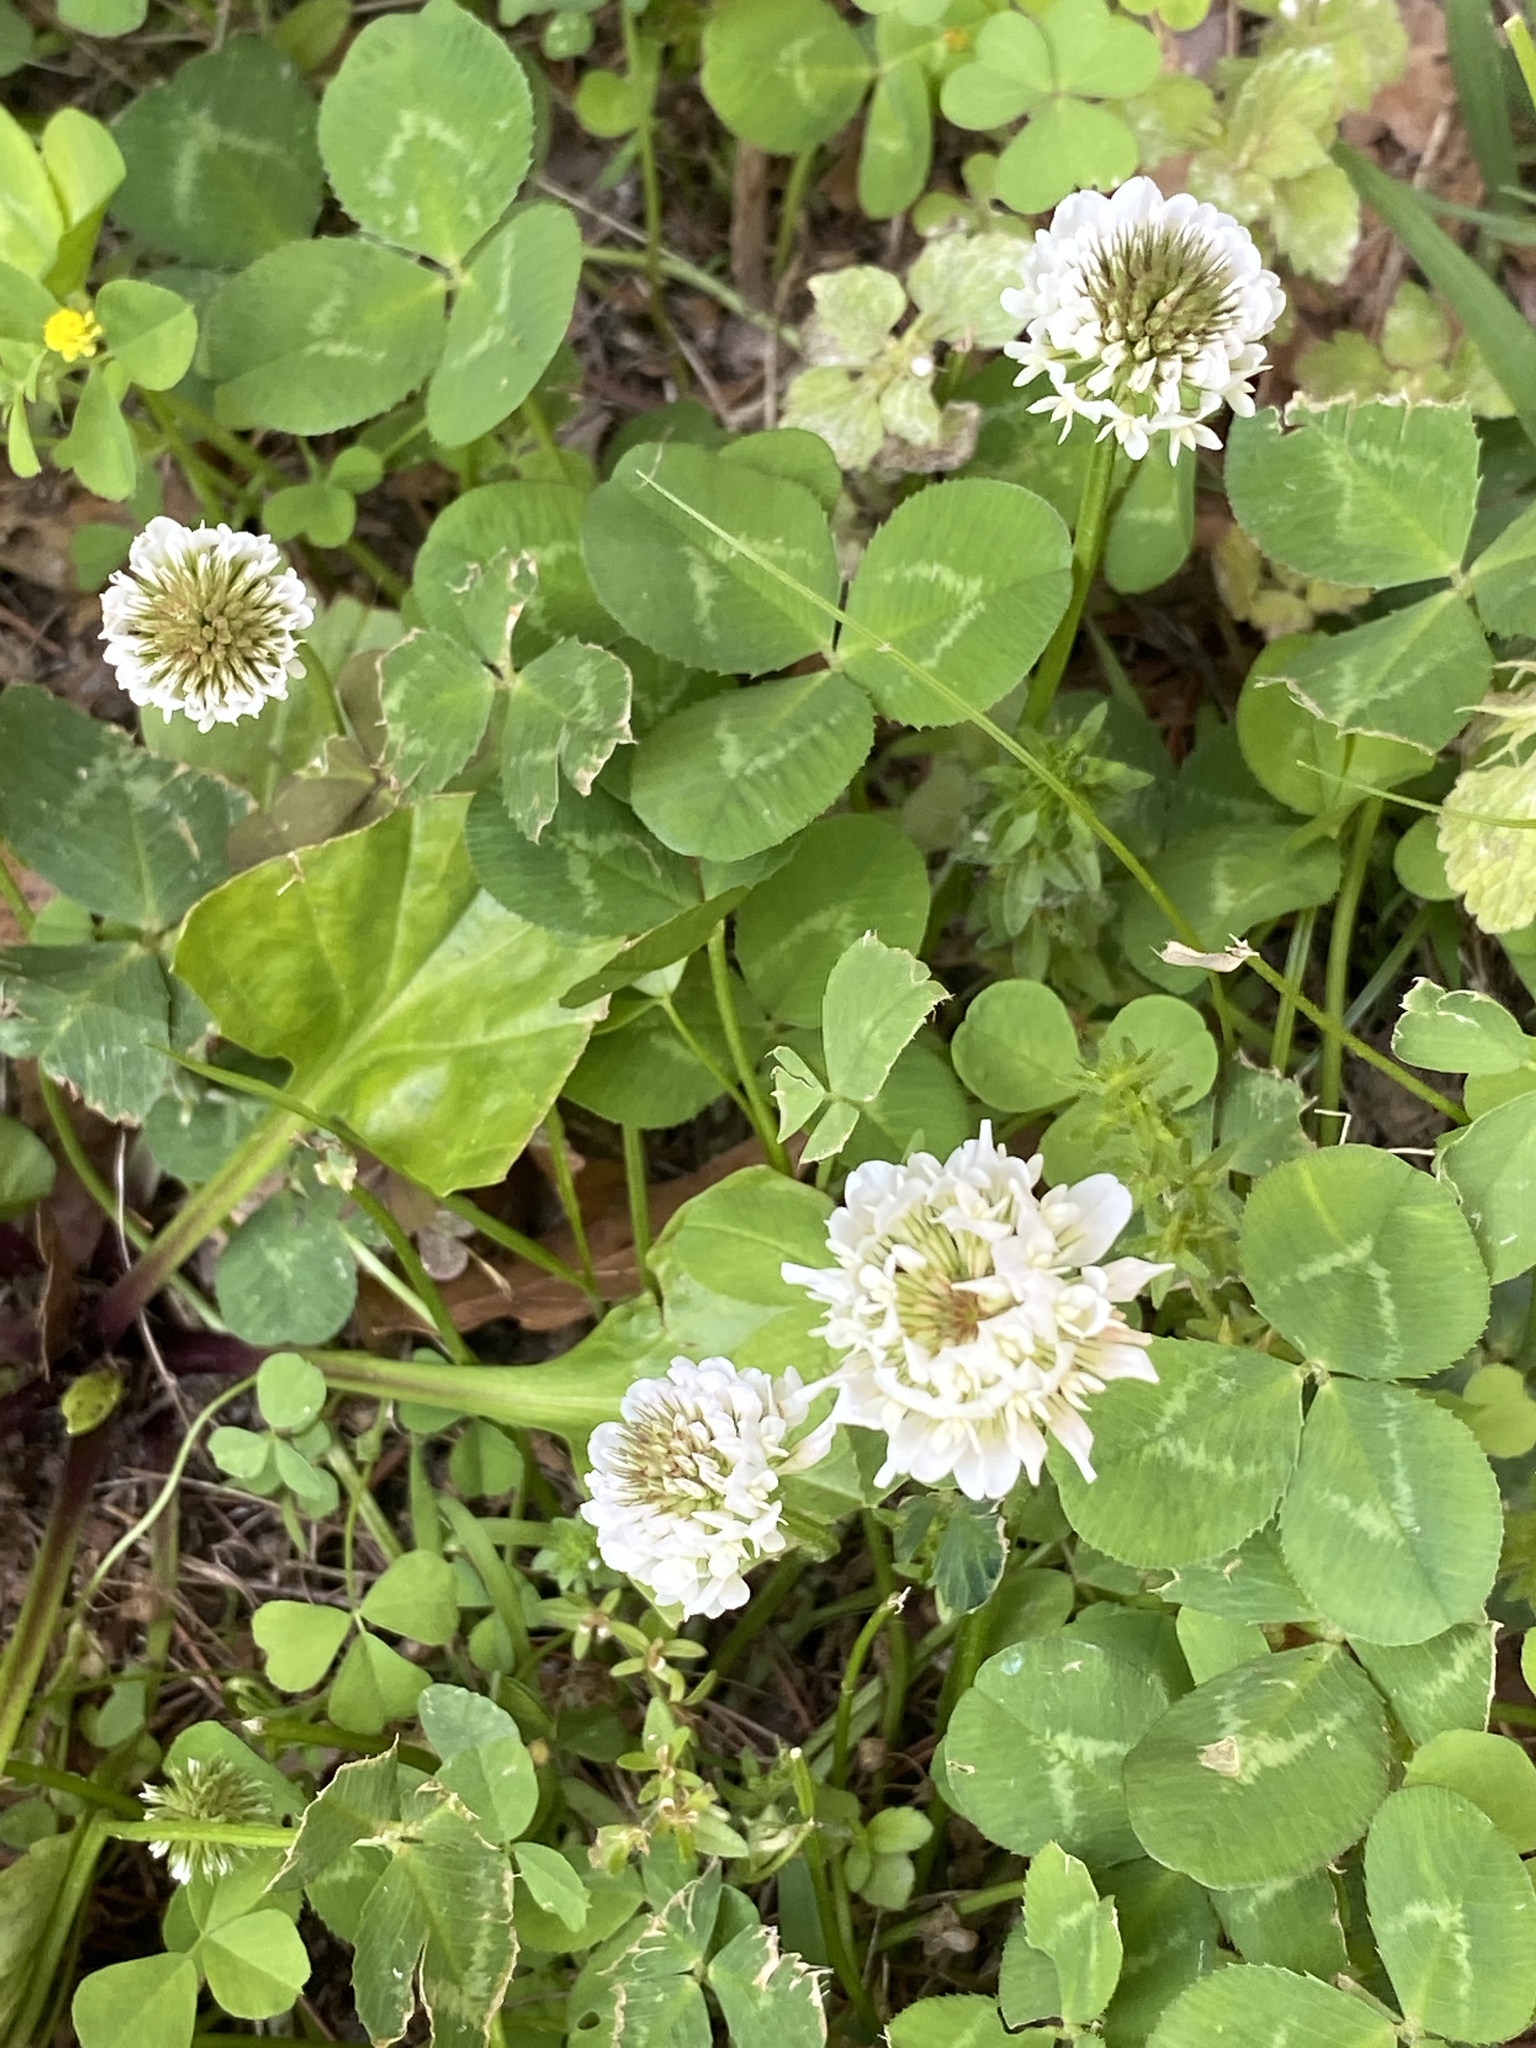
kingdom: Plantae
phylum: Tracheophyta
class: Magnoliopsida
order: Fabales
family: Fabaceae
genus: Trifolium
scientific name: Trifolium repens
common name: White clover
